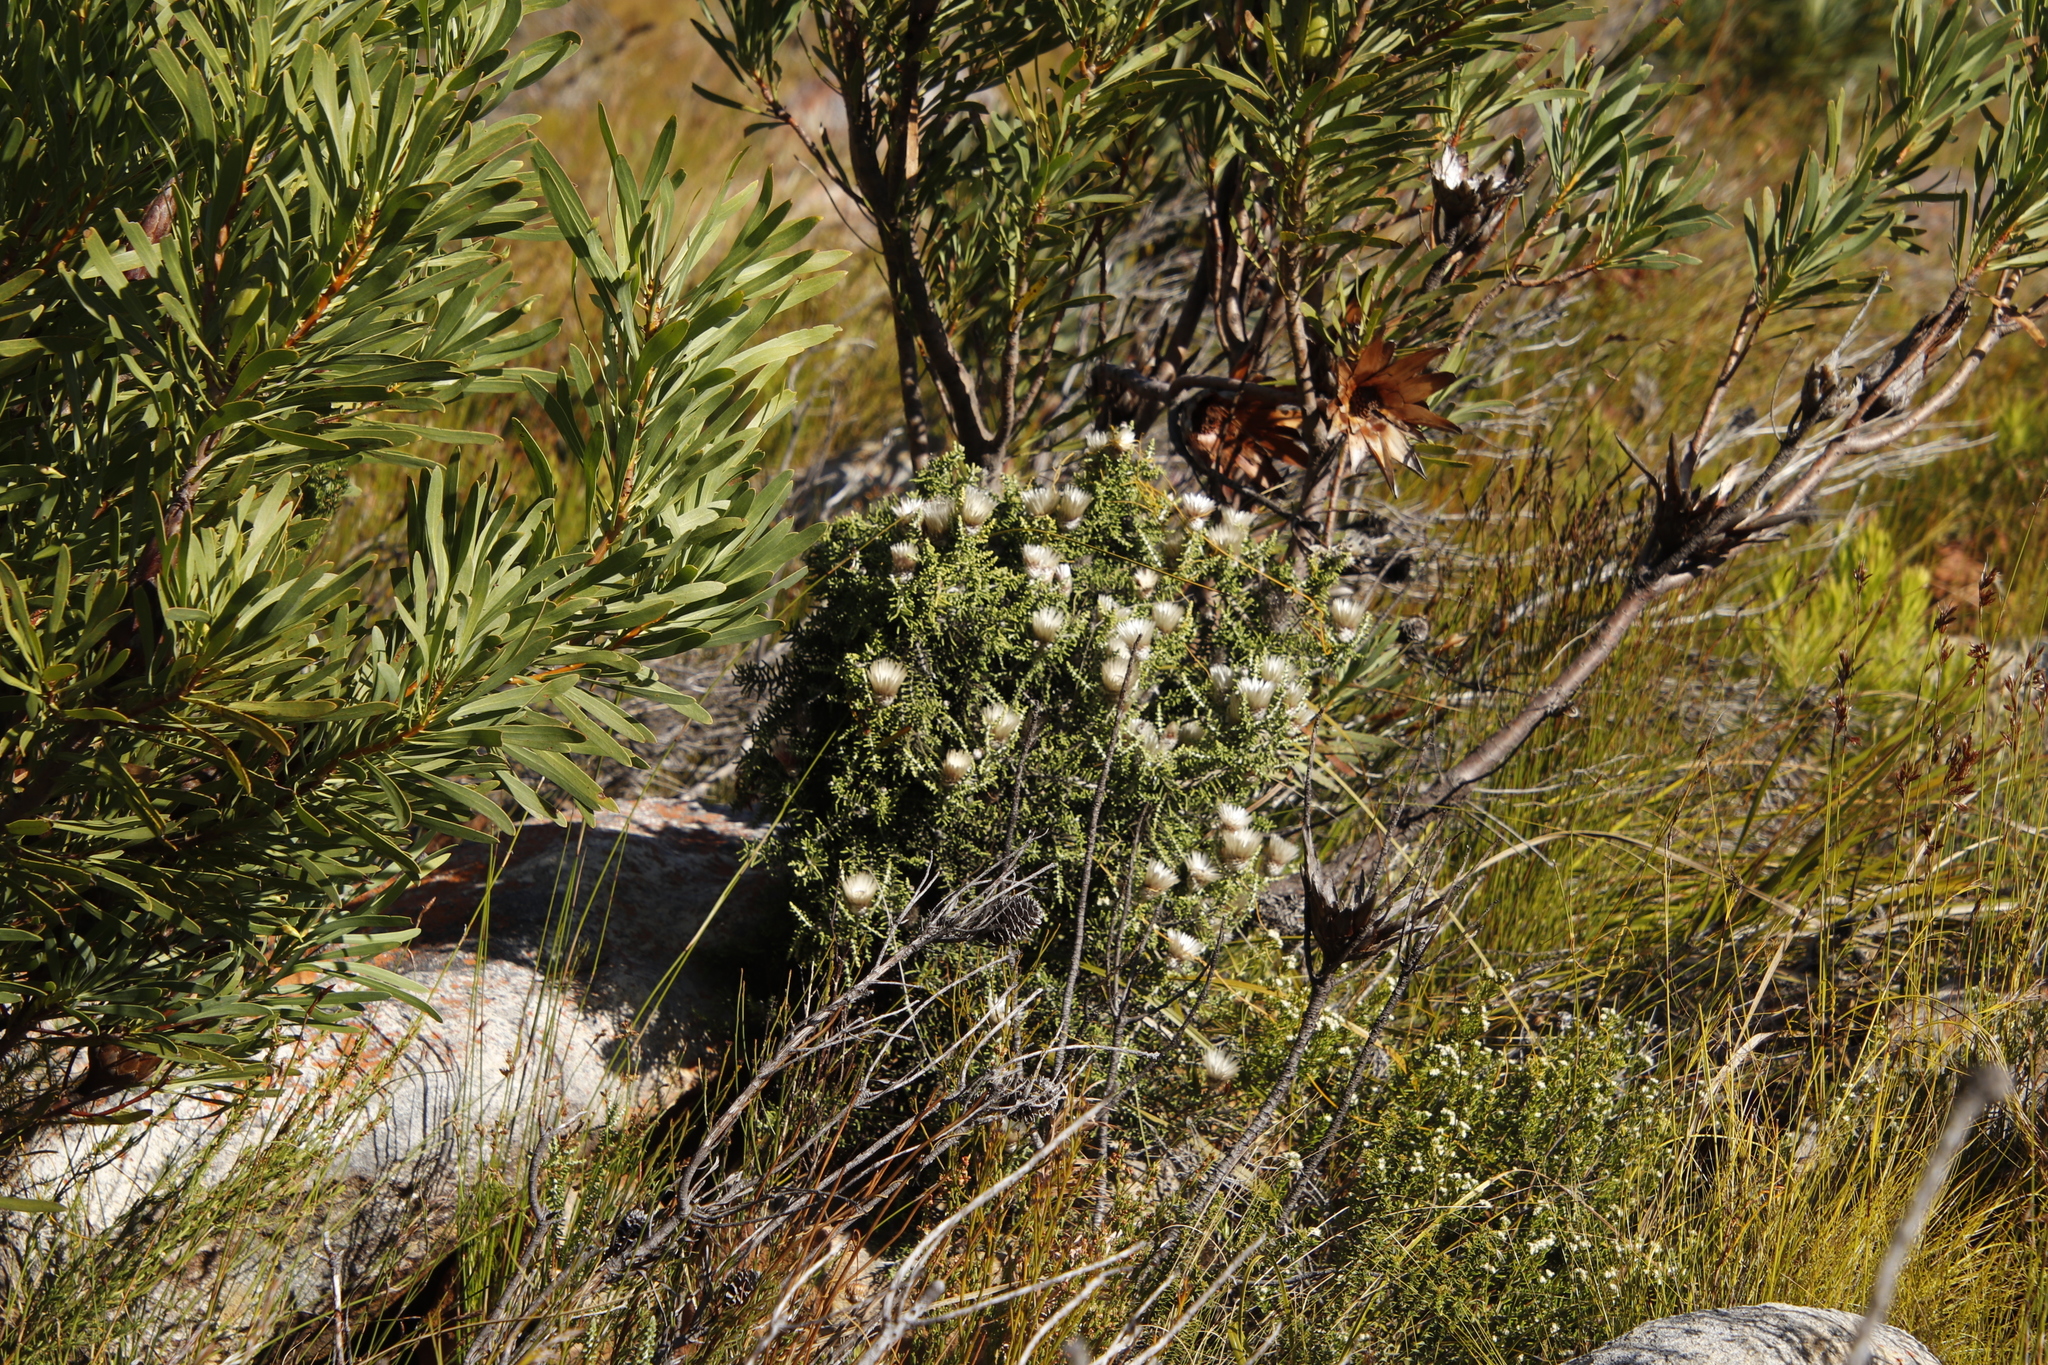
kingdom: Plantae
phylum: Tracheophyta
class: Magnoliopsida
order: Asterales
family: Asteraceae
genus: Phaenocoma
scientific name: Phaenocoma prolifera
